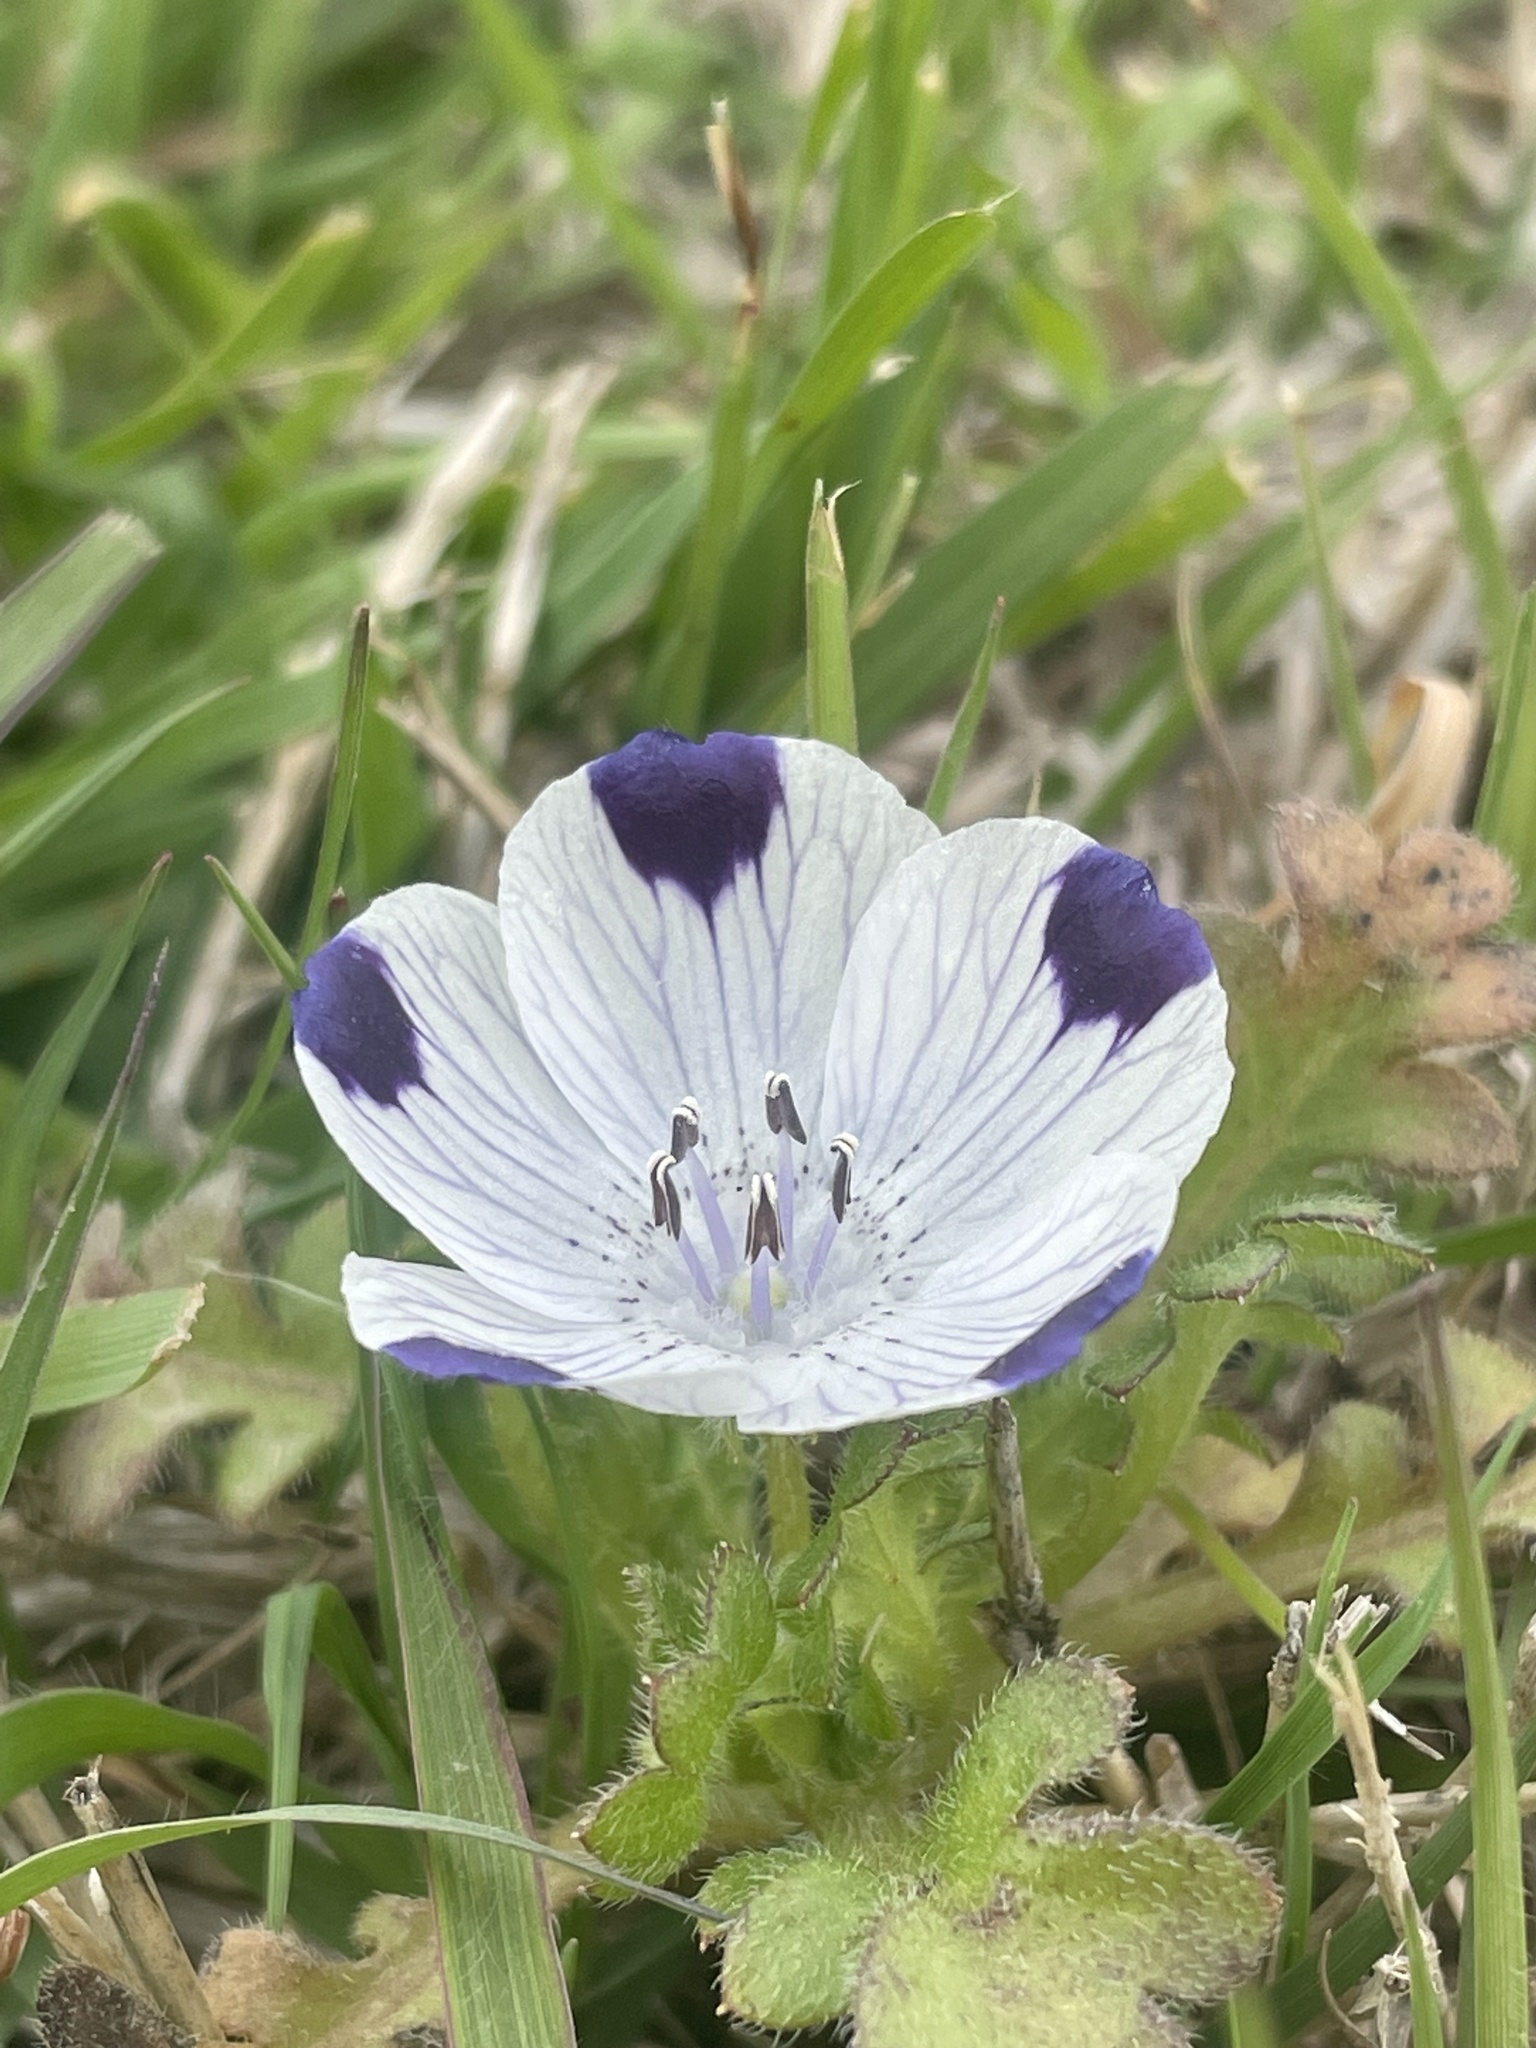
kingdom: Plantae
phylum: Tracheophyta
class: Magnoliopsida
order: Boraginales
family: Hydrophyllaceae
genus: Nemophila
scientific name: Nemophila maculata
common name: Fivespot
